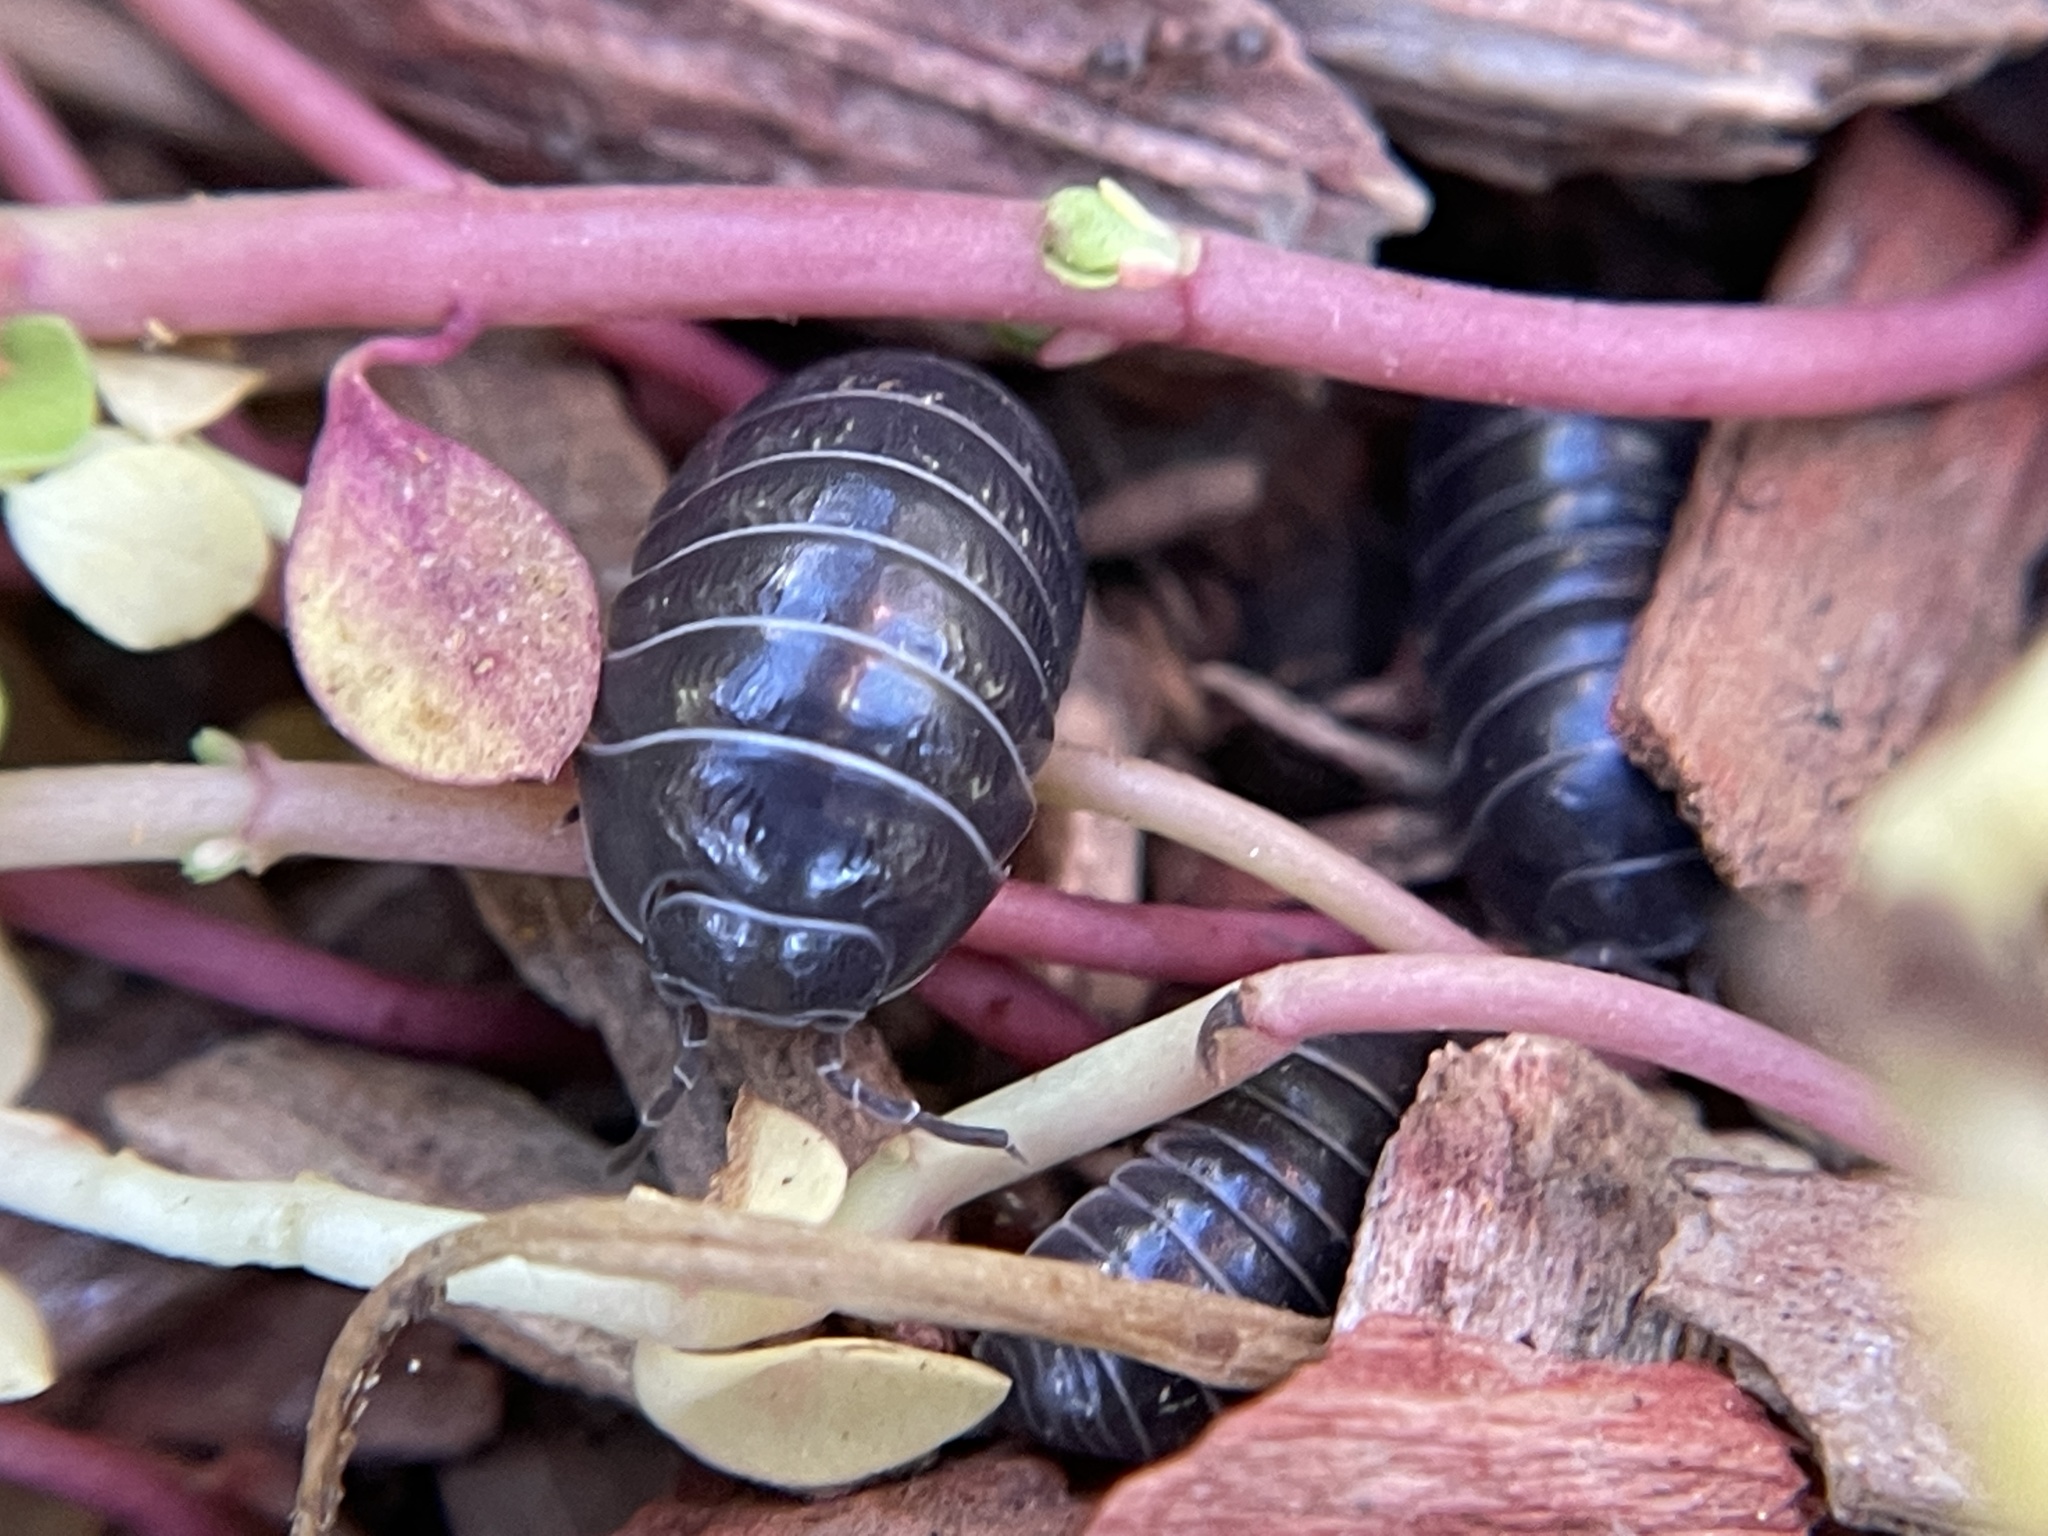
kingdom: Animalia
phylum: Arthropoda
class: Malacostraca
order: Isopoda
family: Armadillidiidae
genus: Armadillidium
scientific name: Armadillidium vulgare
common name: Common pill woodlouse
